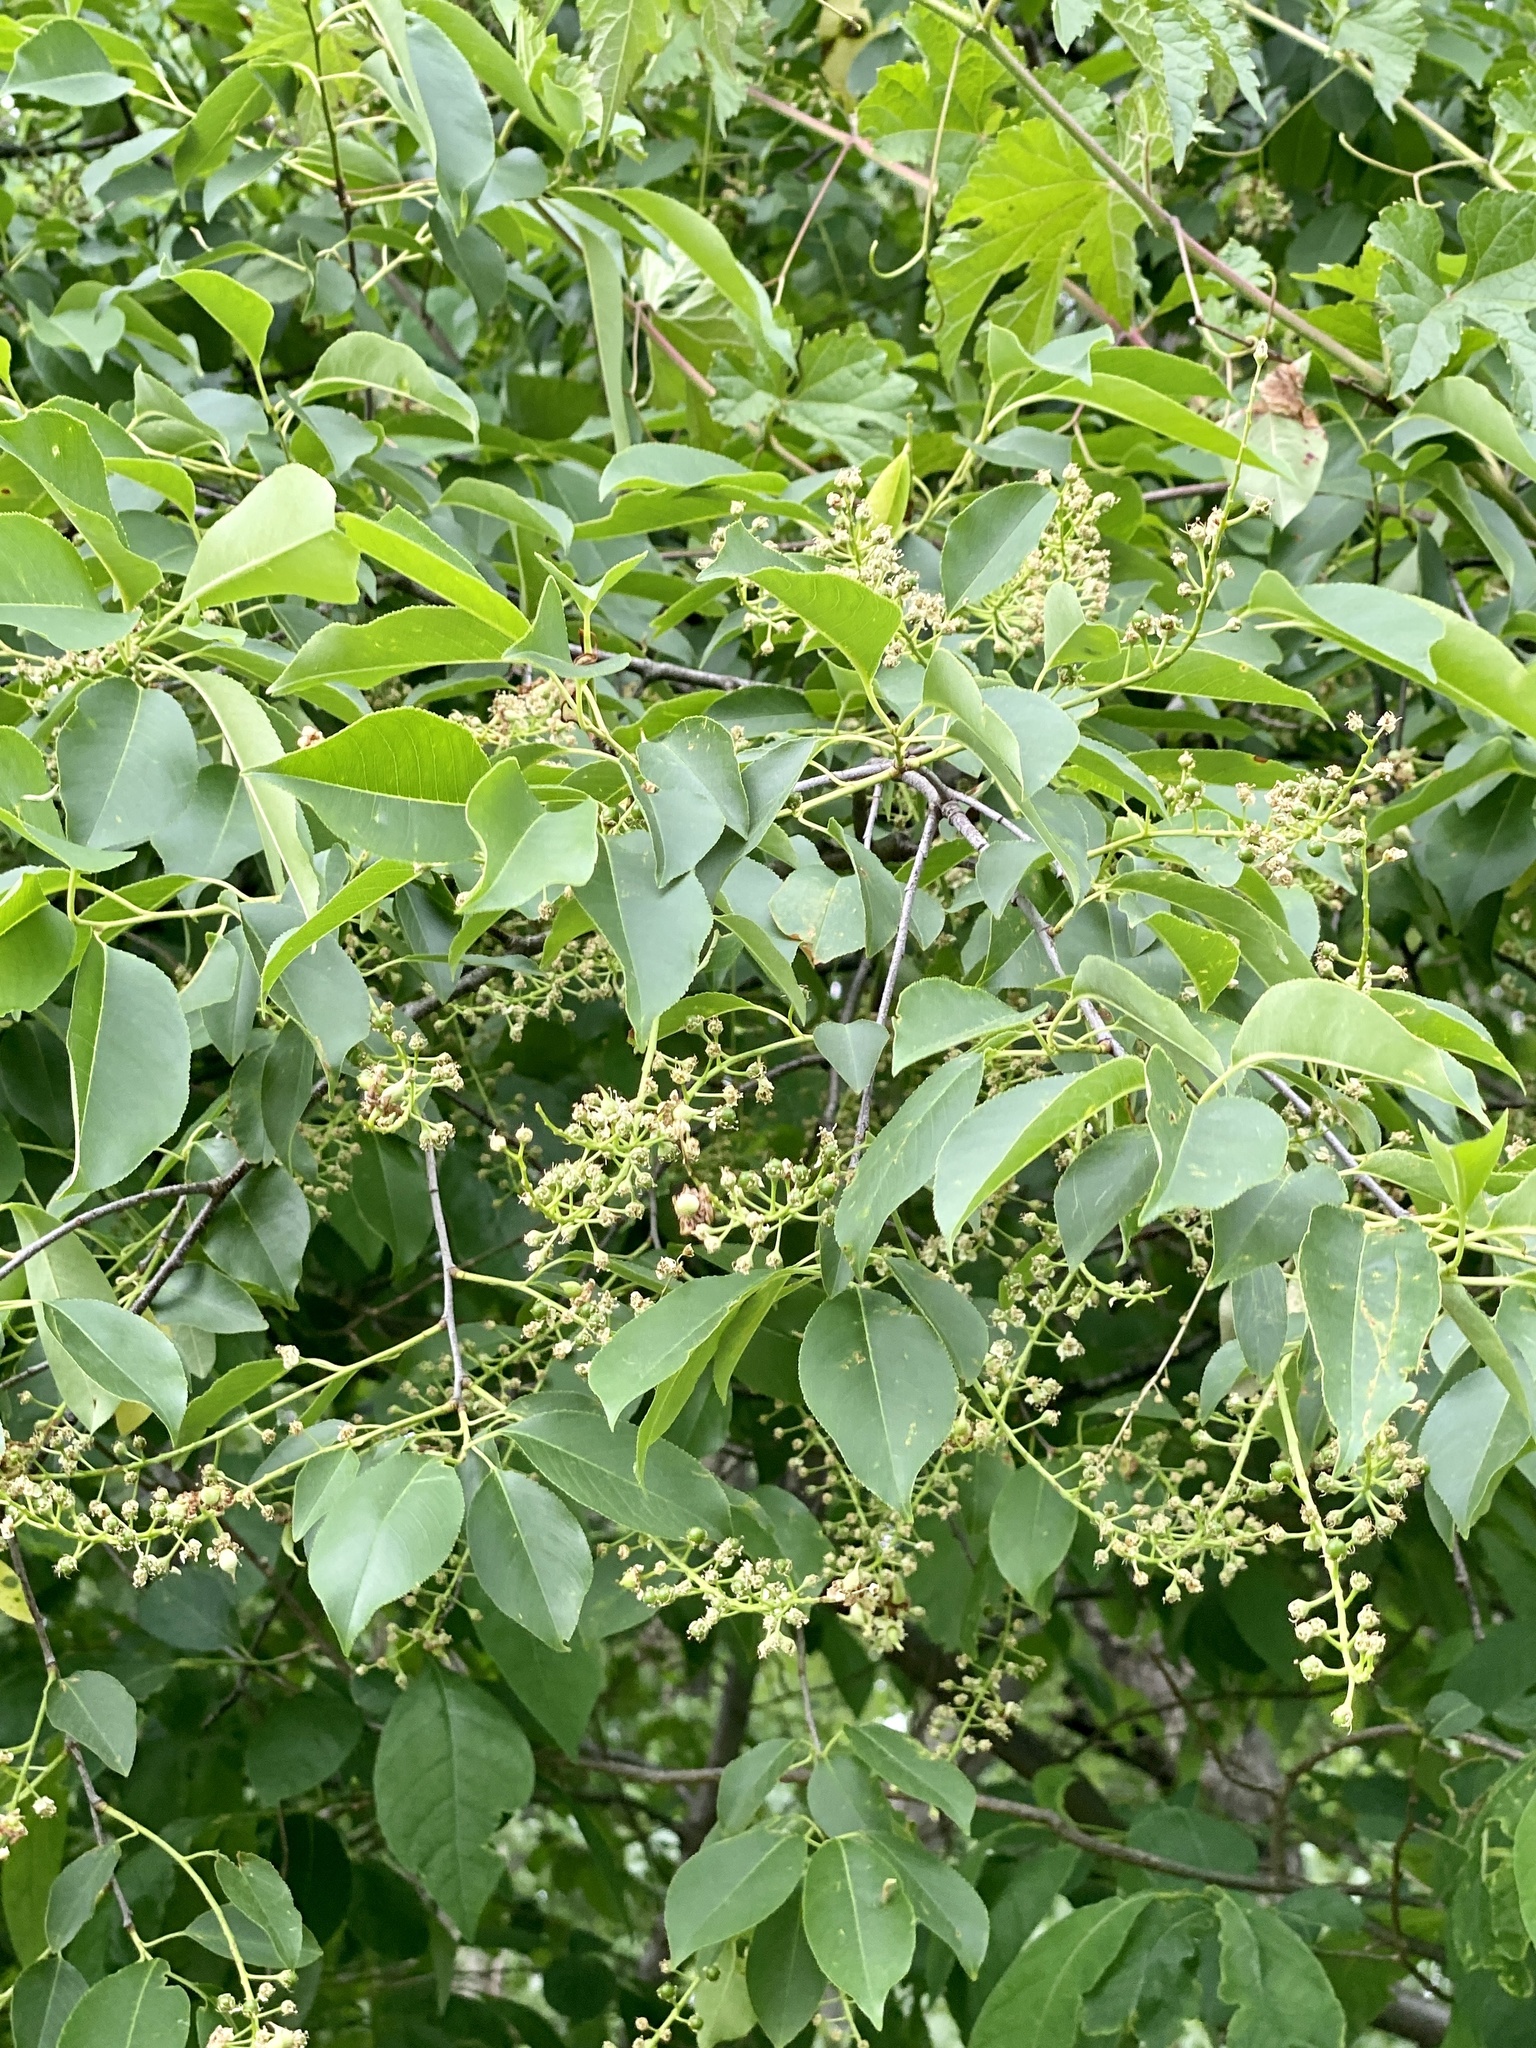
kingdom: Plantae
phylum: Tracheophyta
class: Magnoliopsida
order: Rosales
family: Rosaceae
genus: Prunus
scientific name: Prunus serotina
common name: Black cherry
